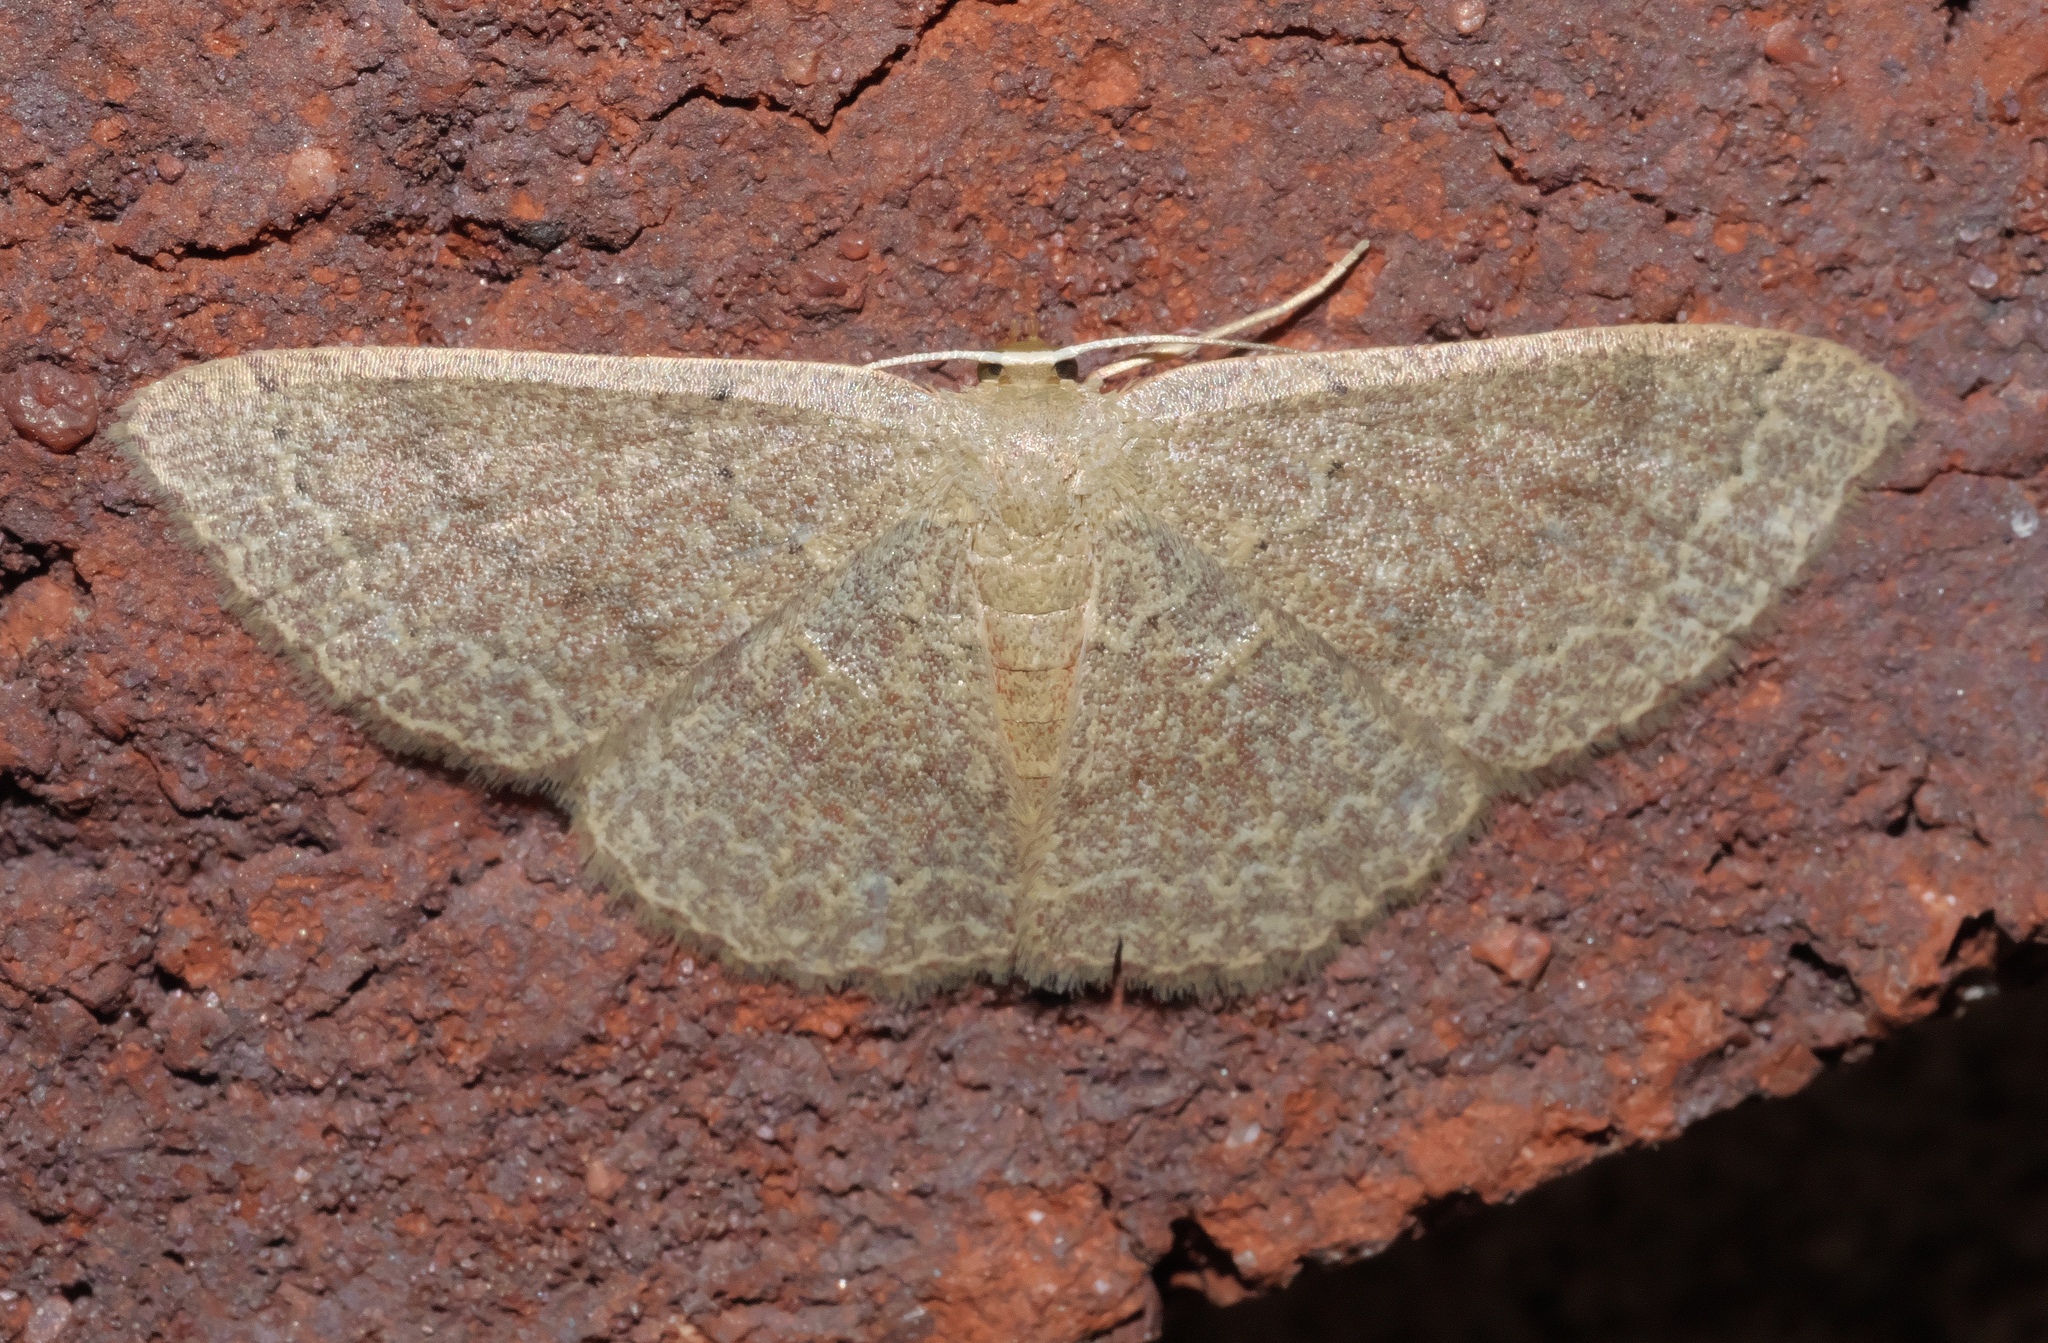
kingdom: Animalia
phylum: Arthropoda
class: Insecta
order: Lepidoptera
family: Geometridae
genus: Pleuroprucha
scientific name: Pleuroprucha insulsaria
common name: Common tan wave
